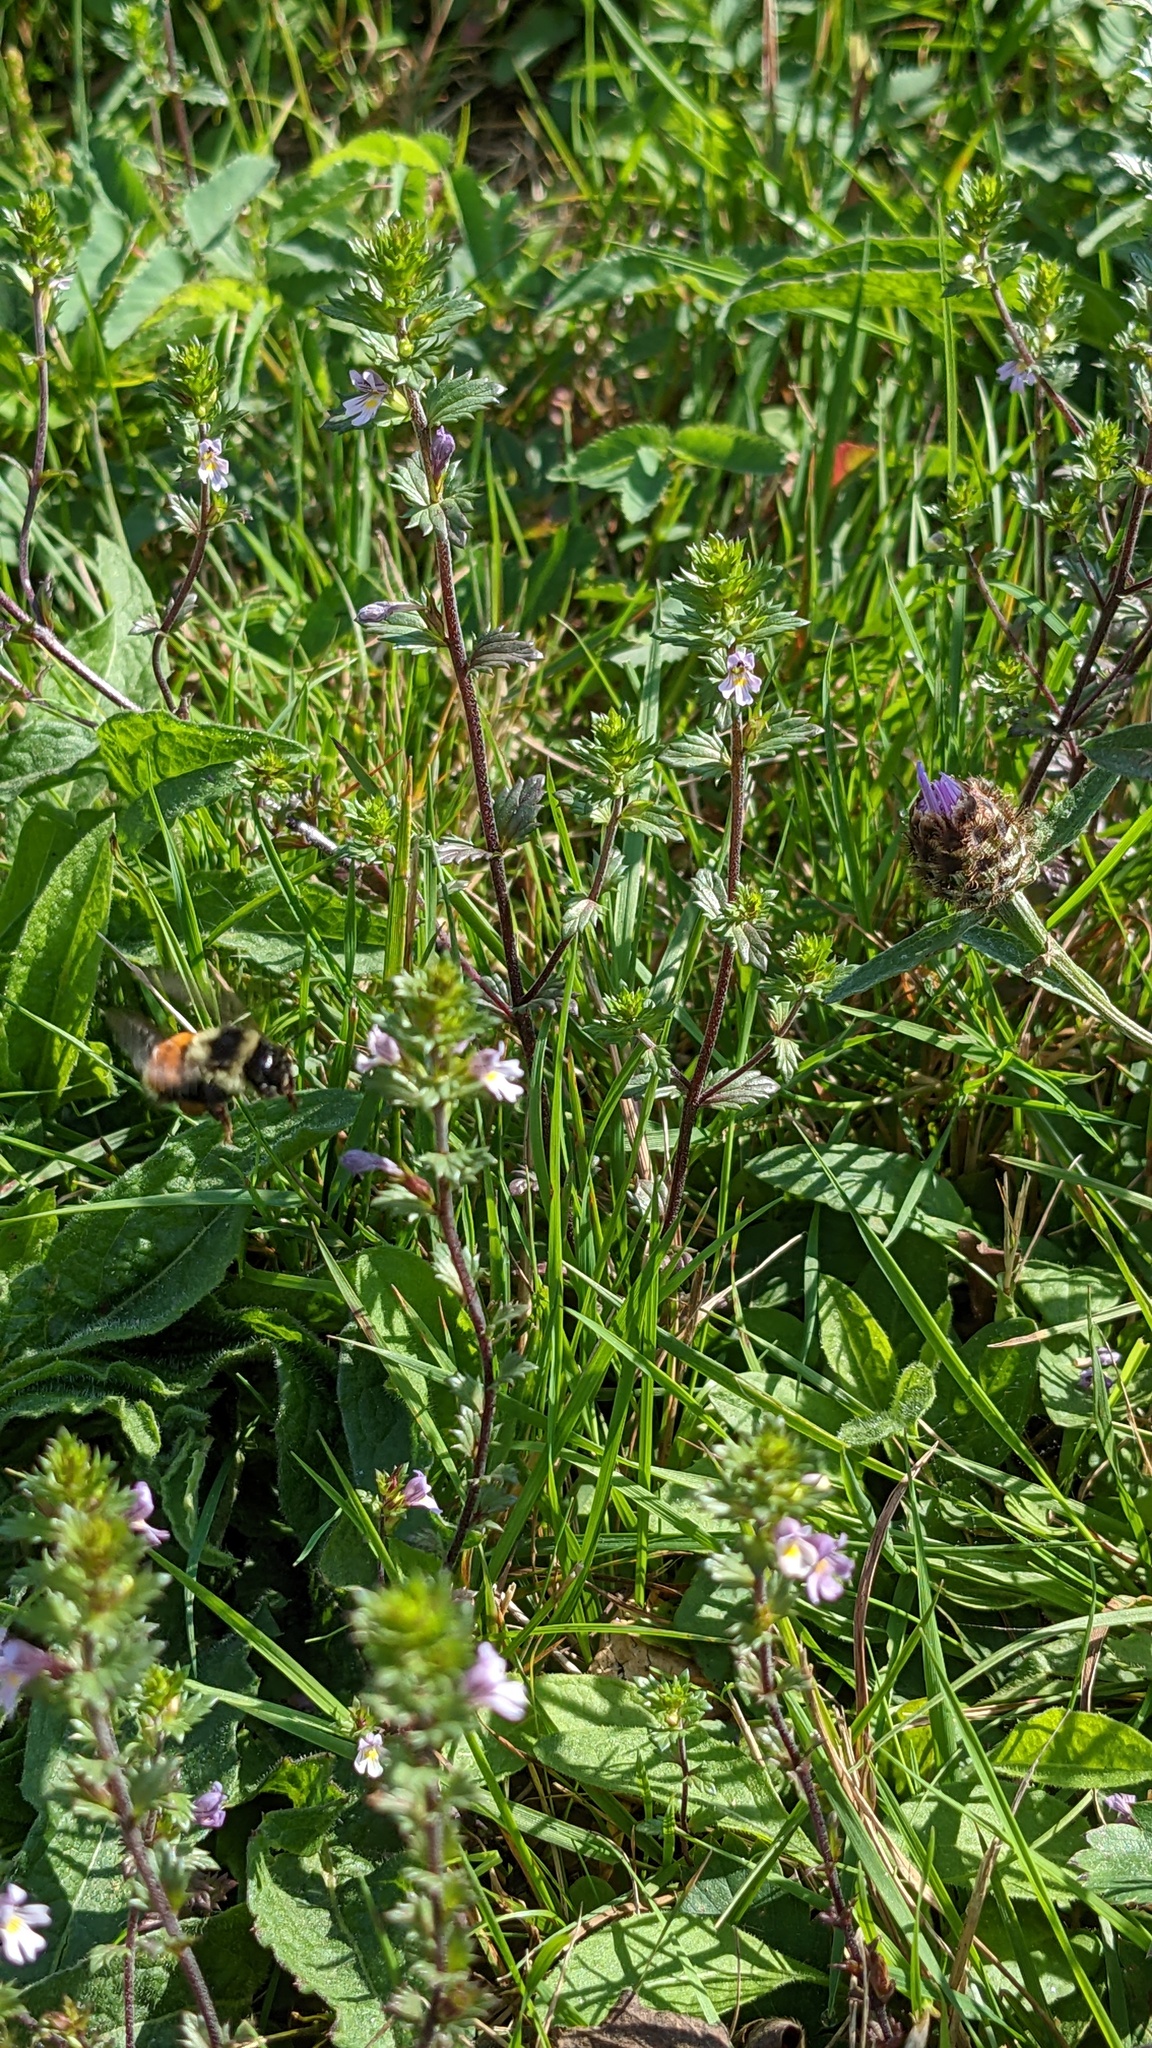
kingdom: Animalia
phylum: Arthropoda
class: Insecta
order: Hymenoptera
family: Apidae
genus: Bombus
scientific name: Bombus ternarius
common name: Tri-colored bumble bee
